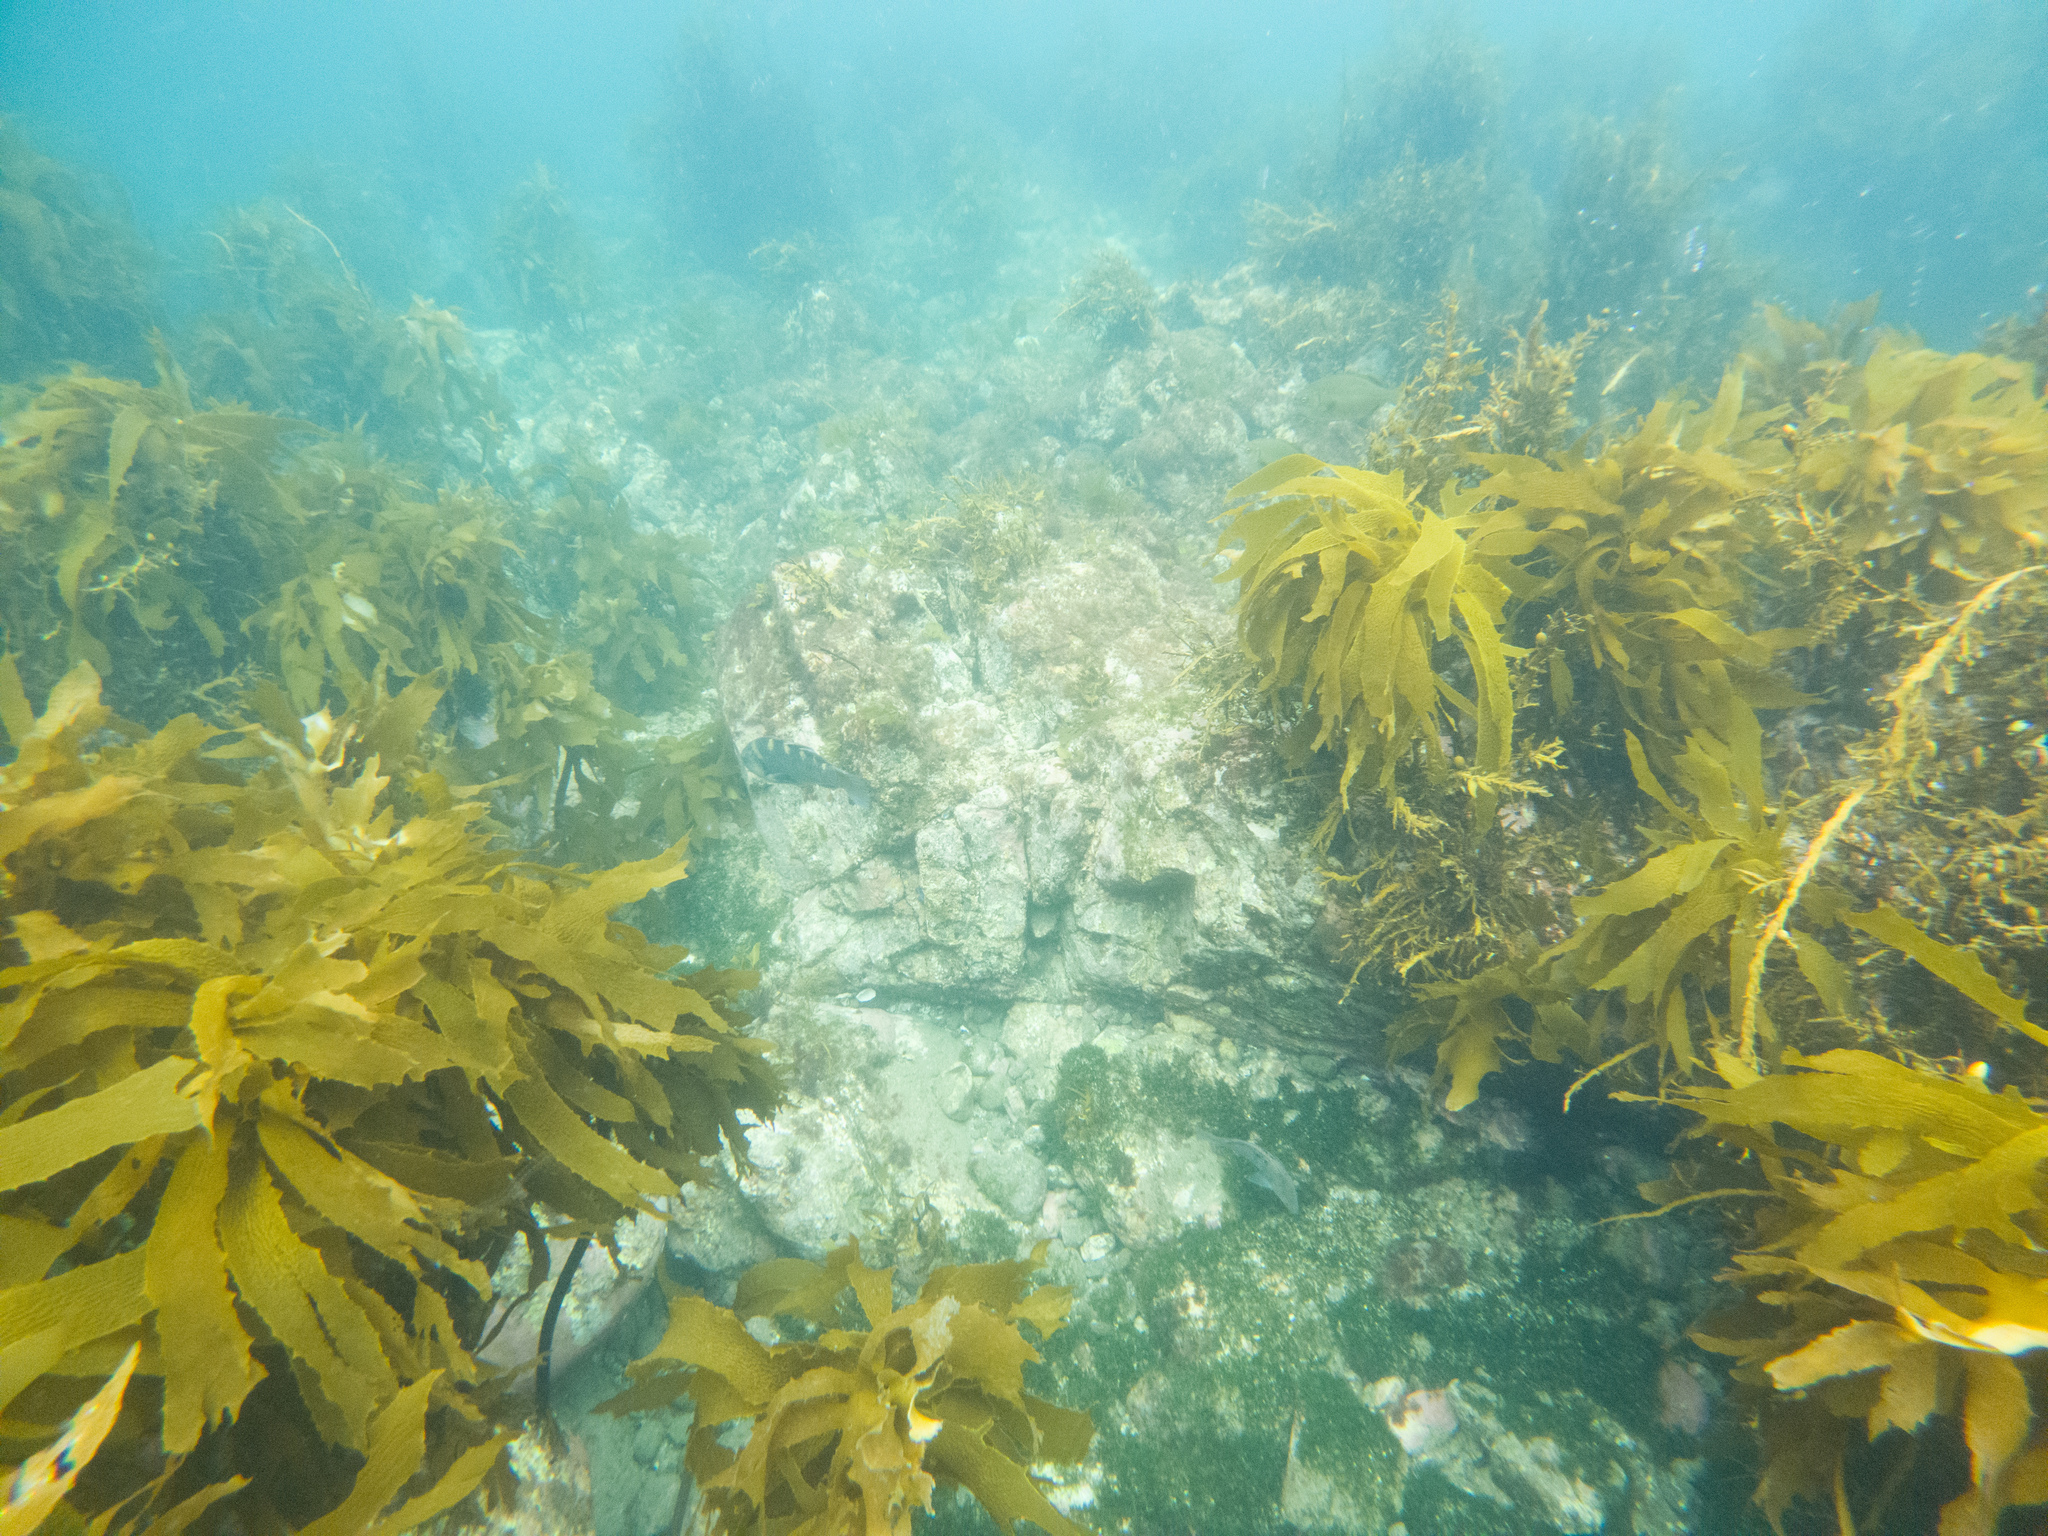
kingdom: Animalia
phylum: Chordata
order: Perciformes
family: Labridae
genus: Notolabrus
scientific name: Notolabrus fucicola
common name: Banded parrotfish
